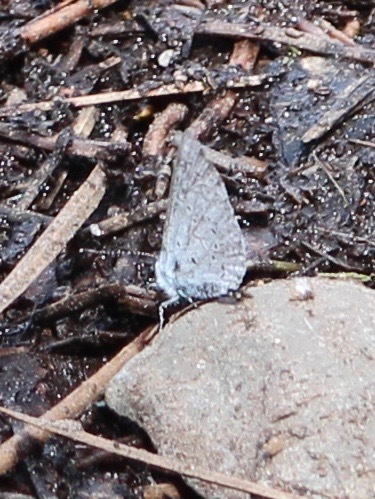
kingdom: Animalia
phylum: Arthropoda
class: Insecta
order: Lepidoptera
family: Lycaenidae
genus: Celastrina
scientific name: Celastrina ladon
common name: Spring azure
